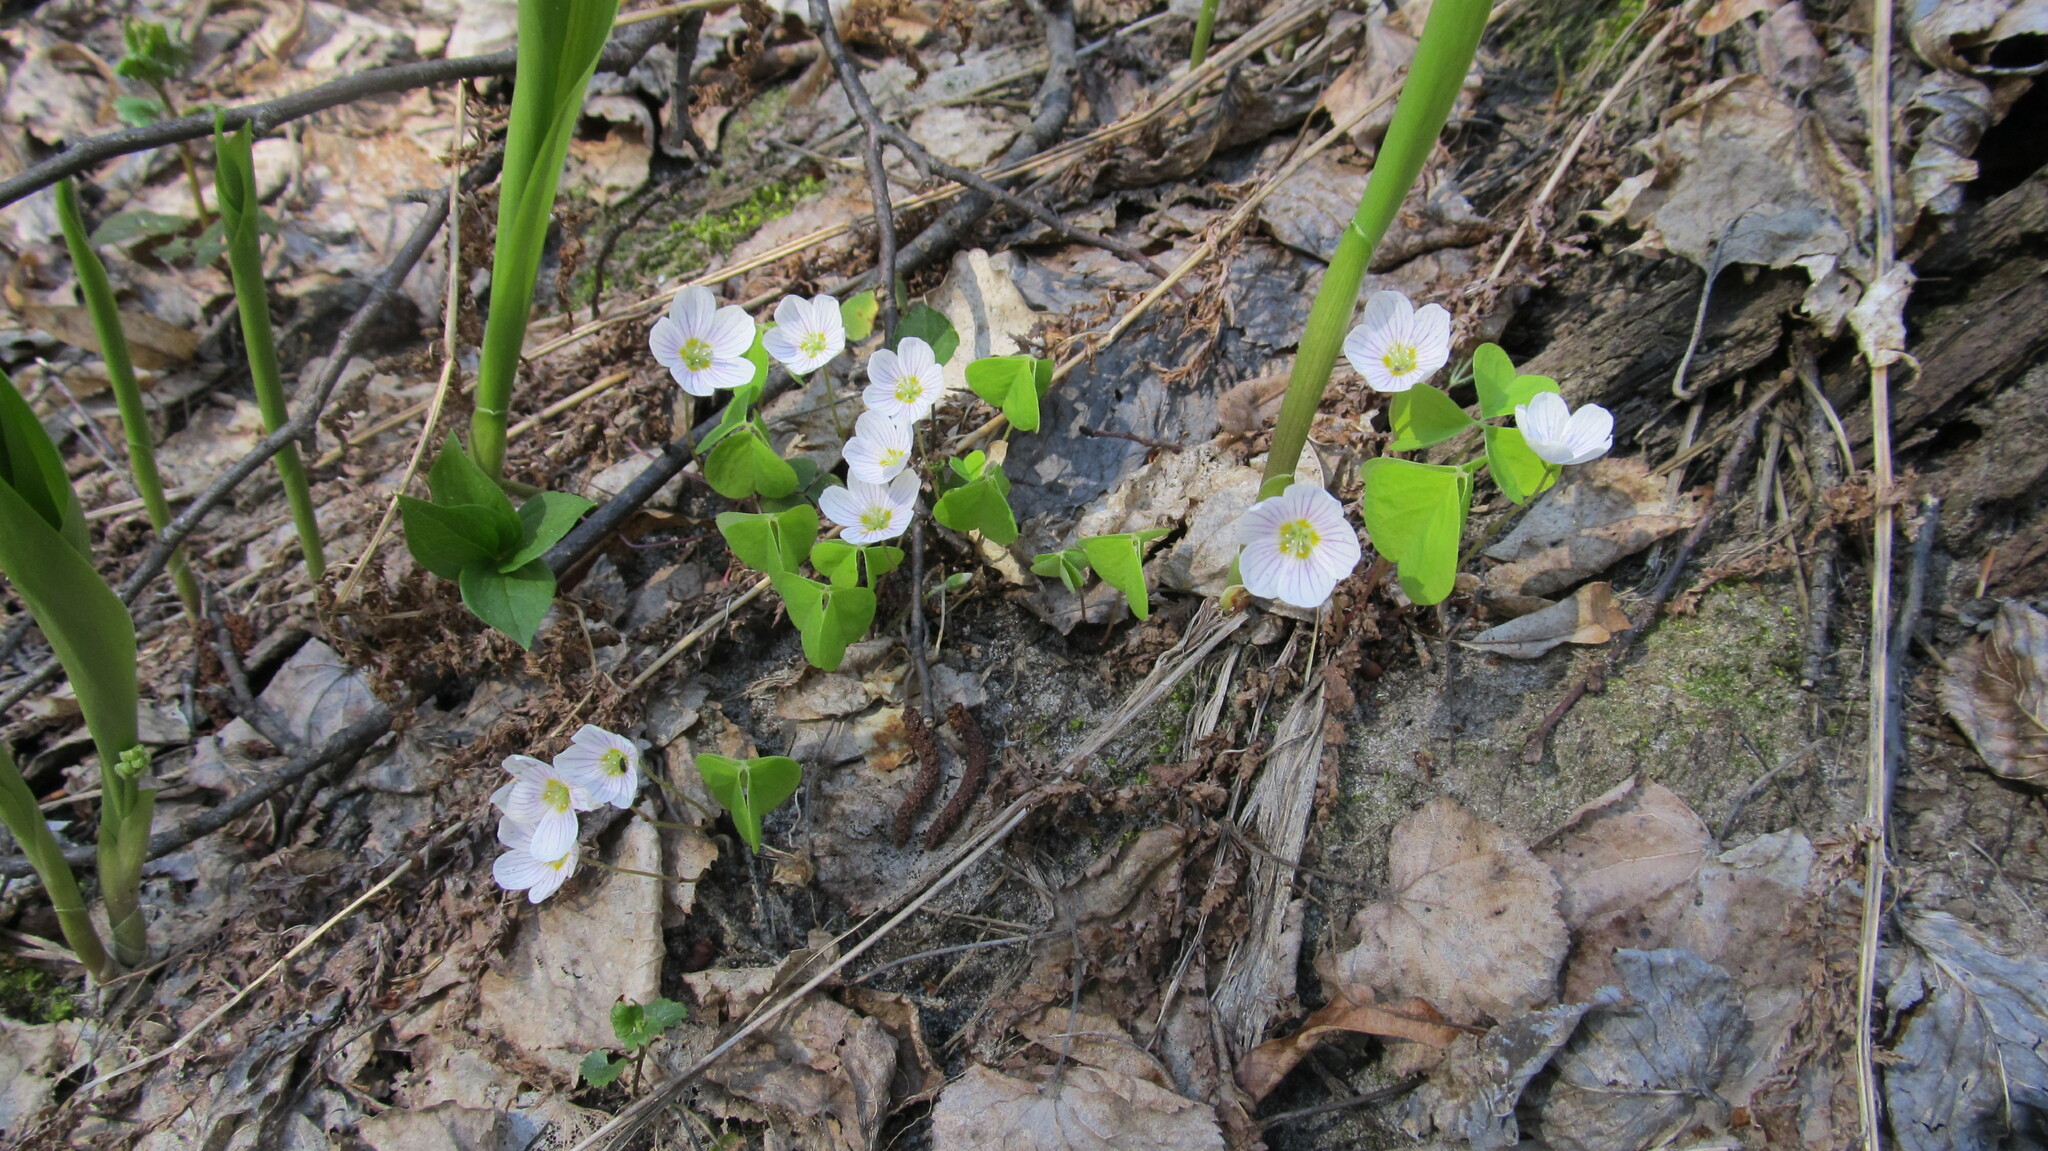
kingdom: Plantae
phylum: Tracheophyta
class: Magnoliopsida
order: Oxalidales
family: Oxalidaceae
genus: Oxalis
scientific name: Oxalis acetosella
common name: Wood-sorrel
